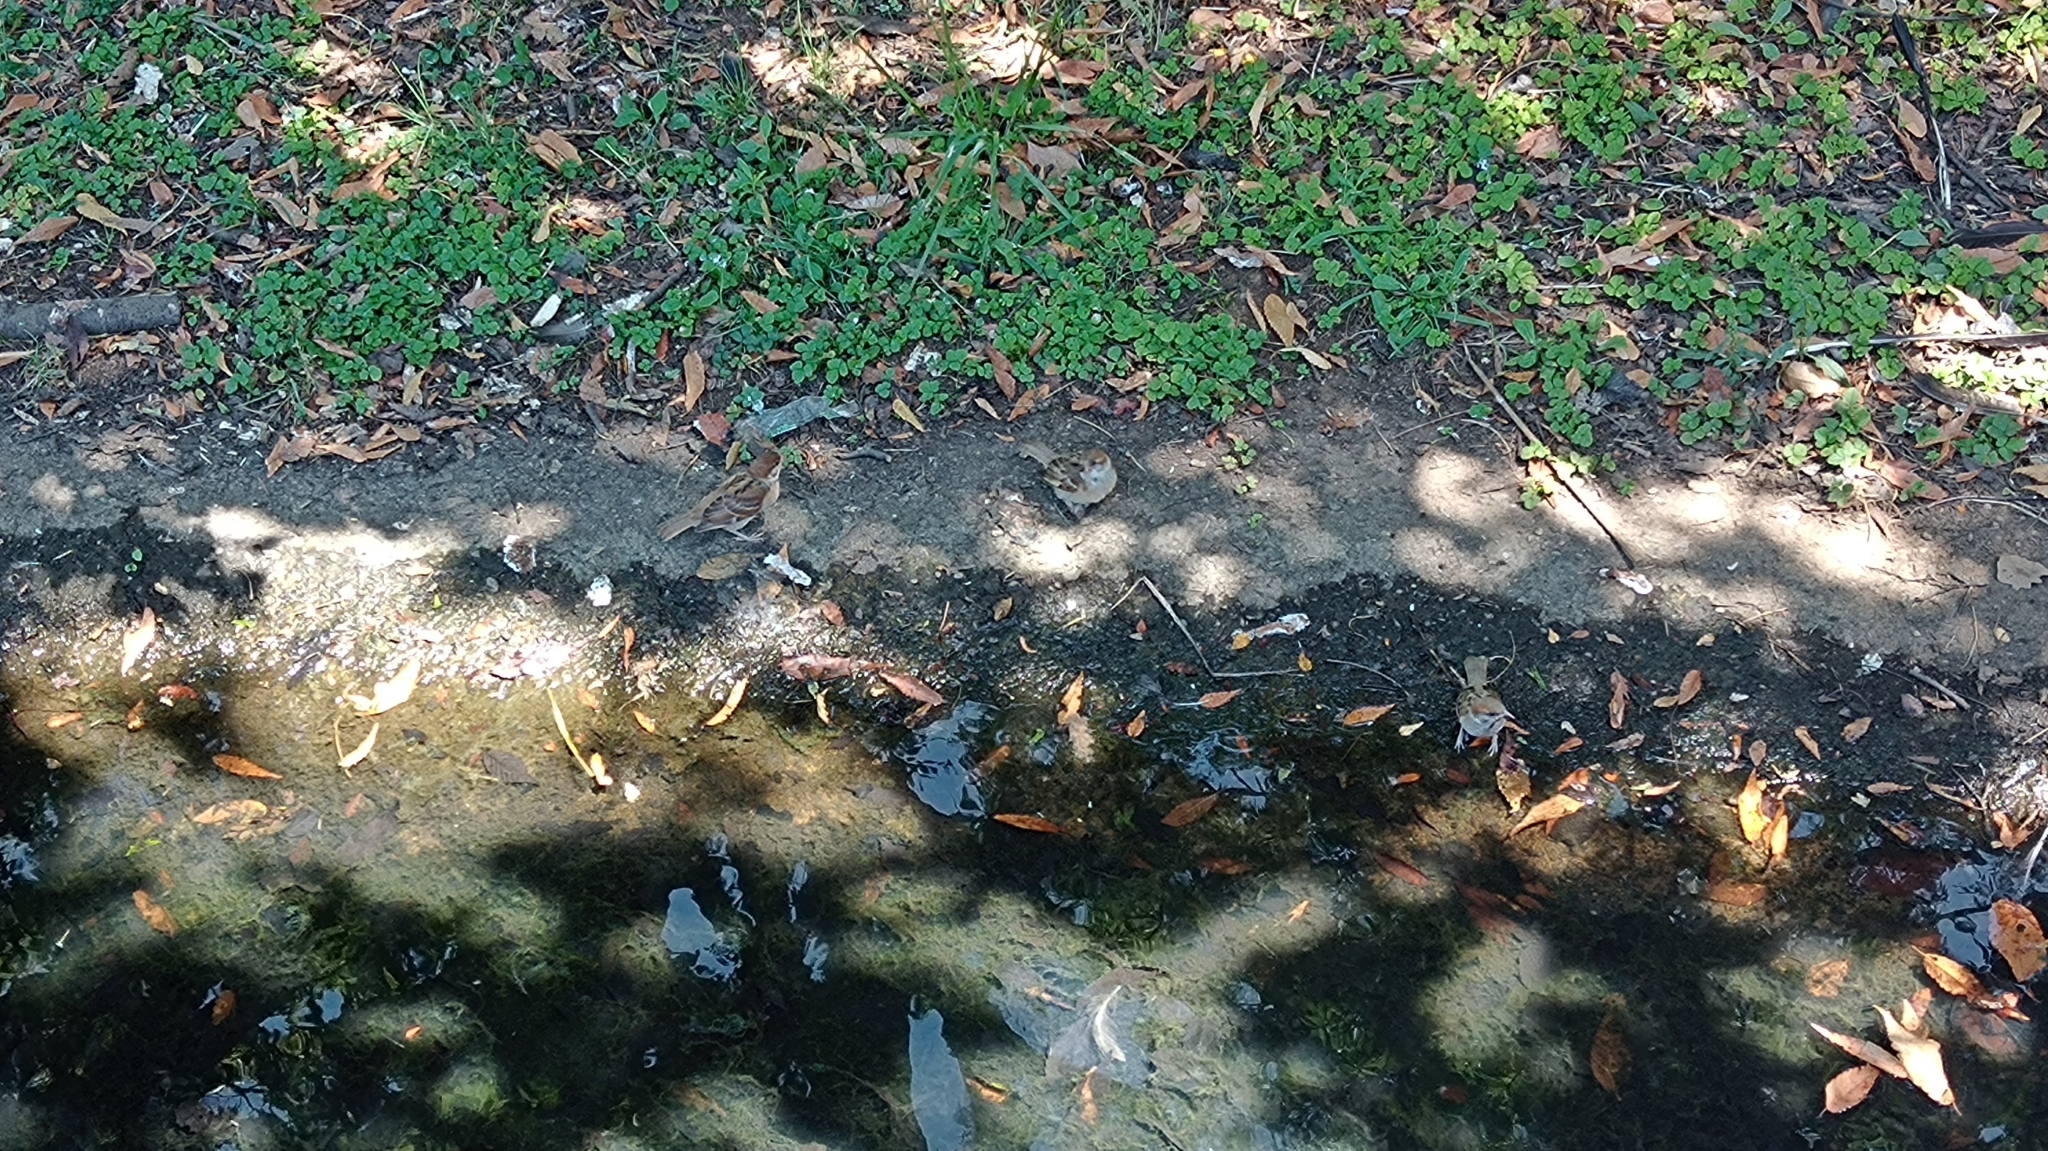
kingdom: Animalia
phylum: Chordata
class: Aves
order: Passeriformes
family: Passeridae
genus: Passer
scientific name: Passer montanus
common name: Eurasian tree sparrow
